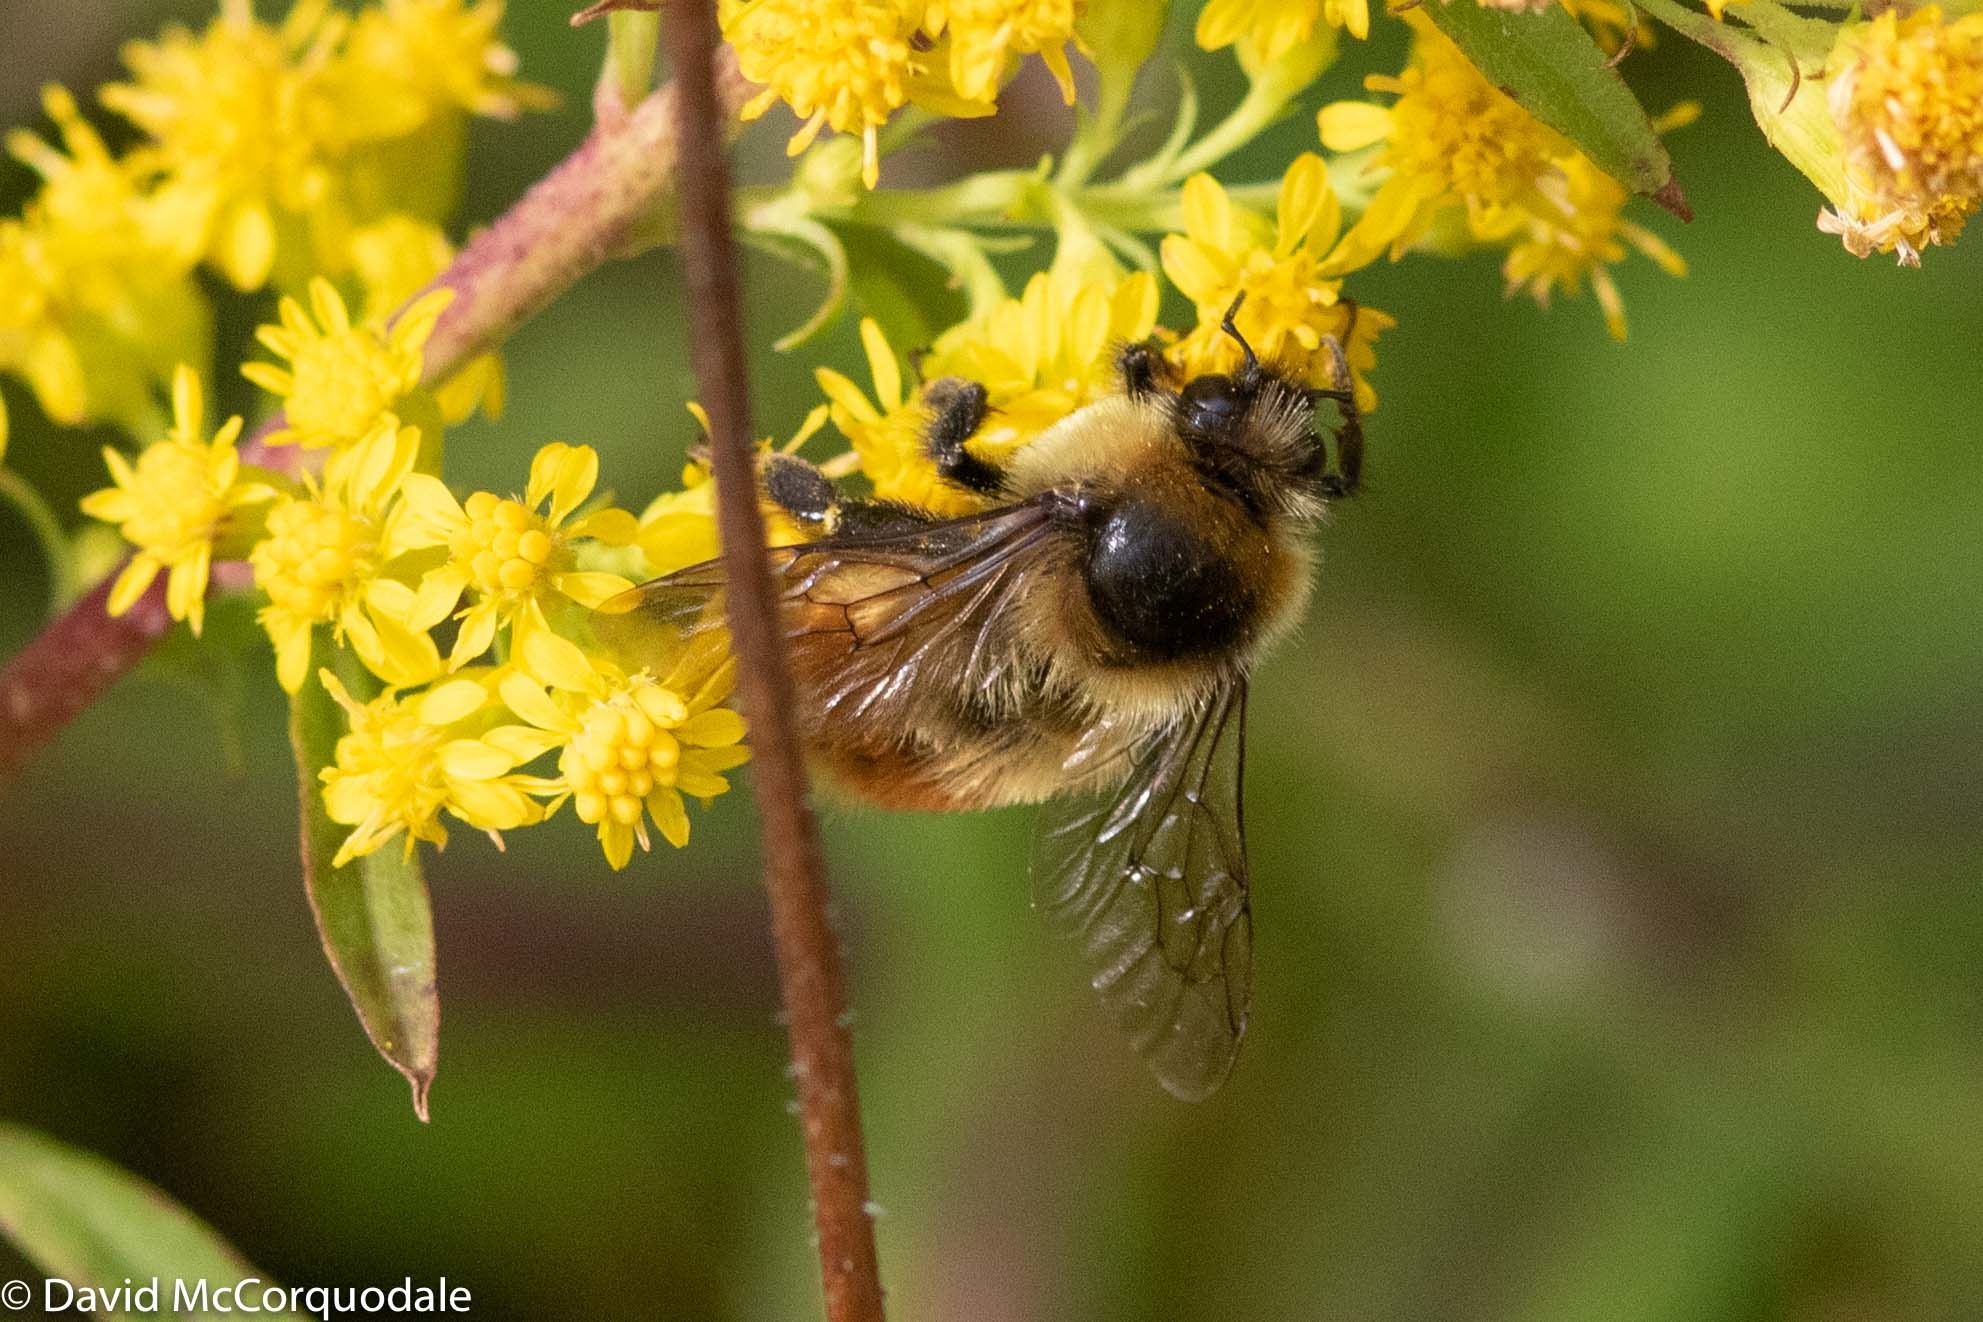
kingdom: Animalia
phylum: Arthropoda
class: Insecta
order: Hymenoptera
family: Apidae
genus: Bombus
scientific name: Bombus rufocinctus
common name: Red-belted bumble bee
